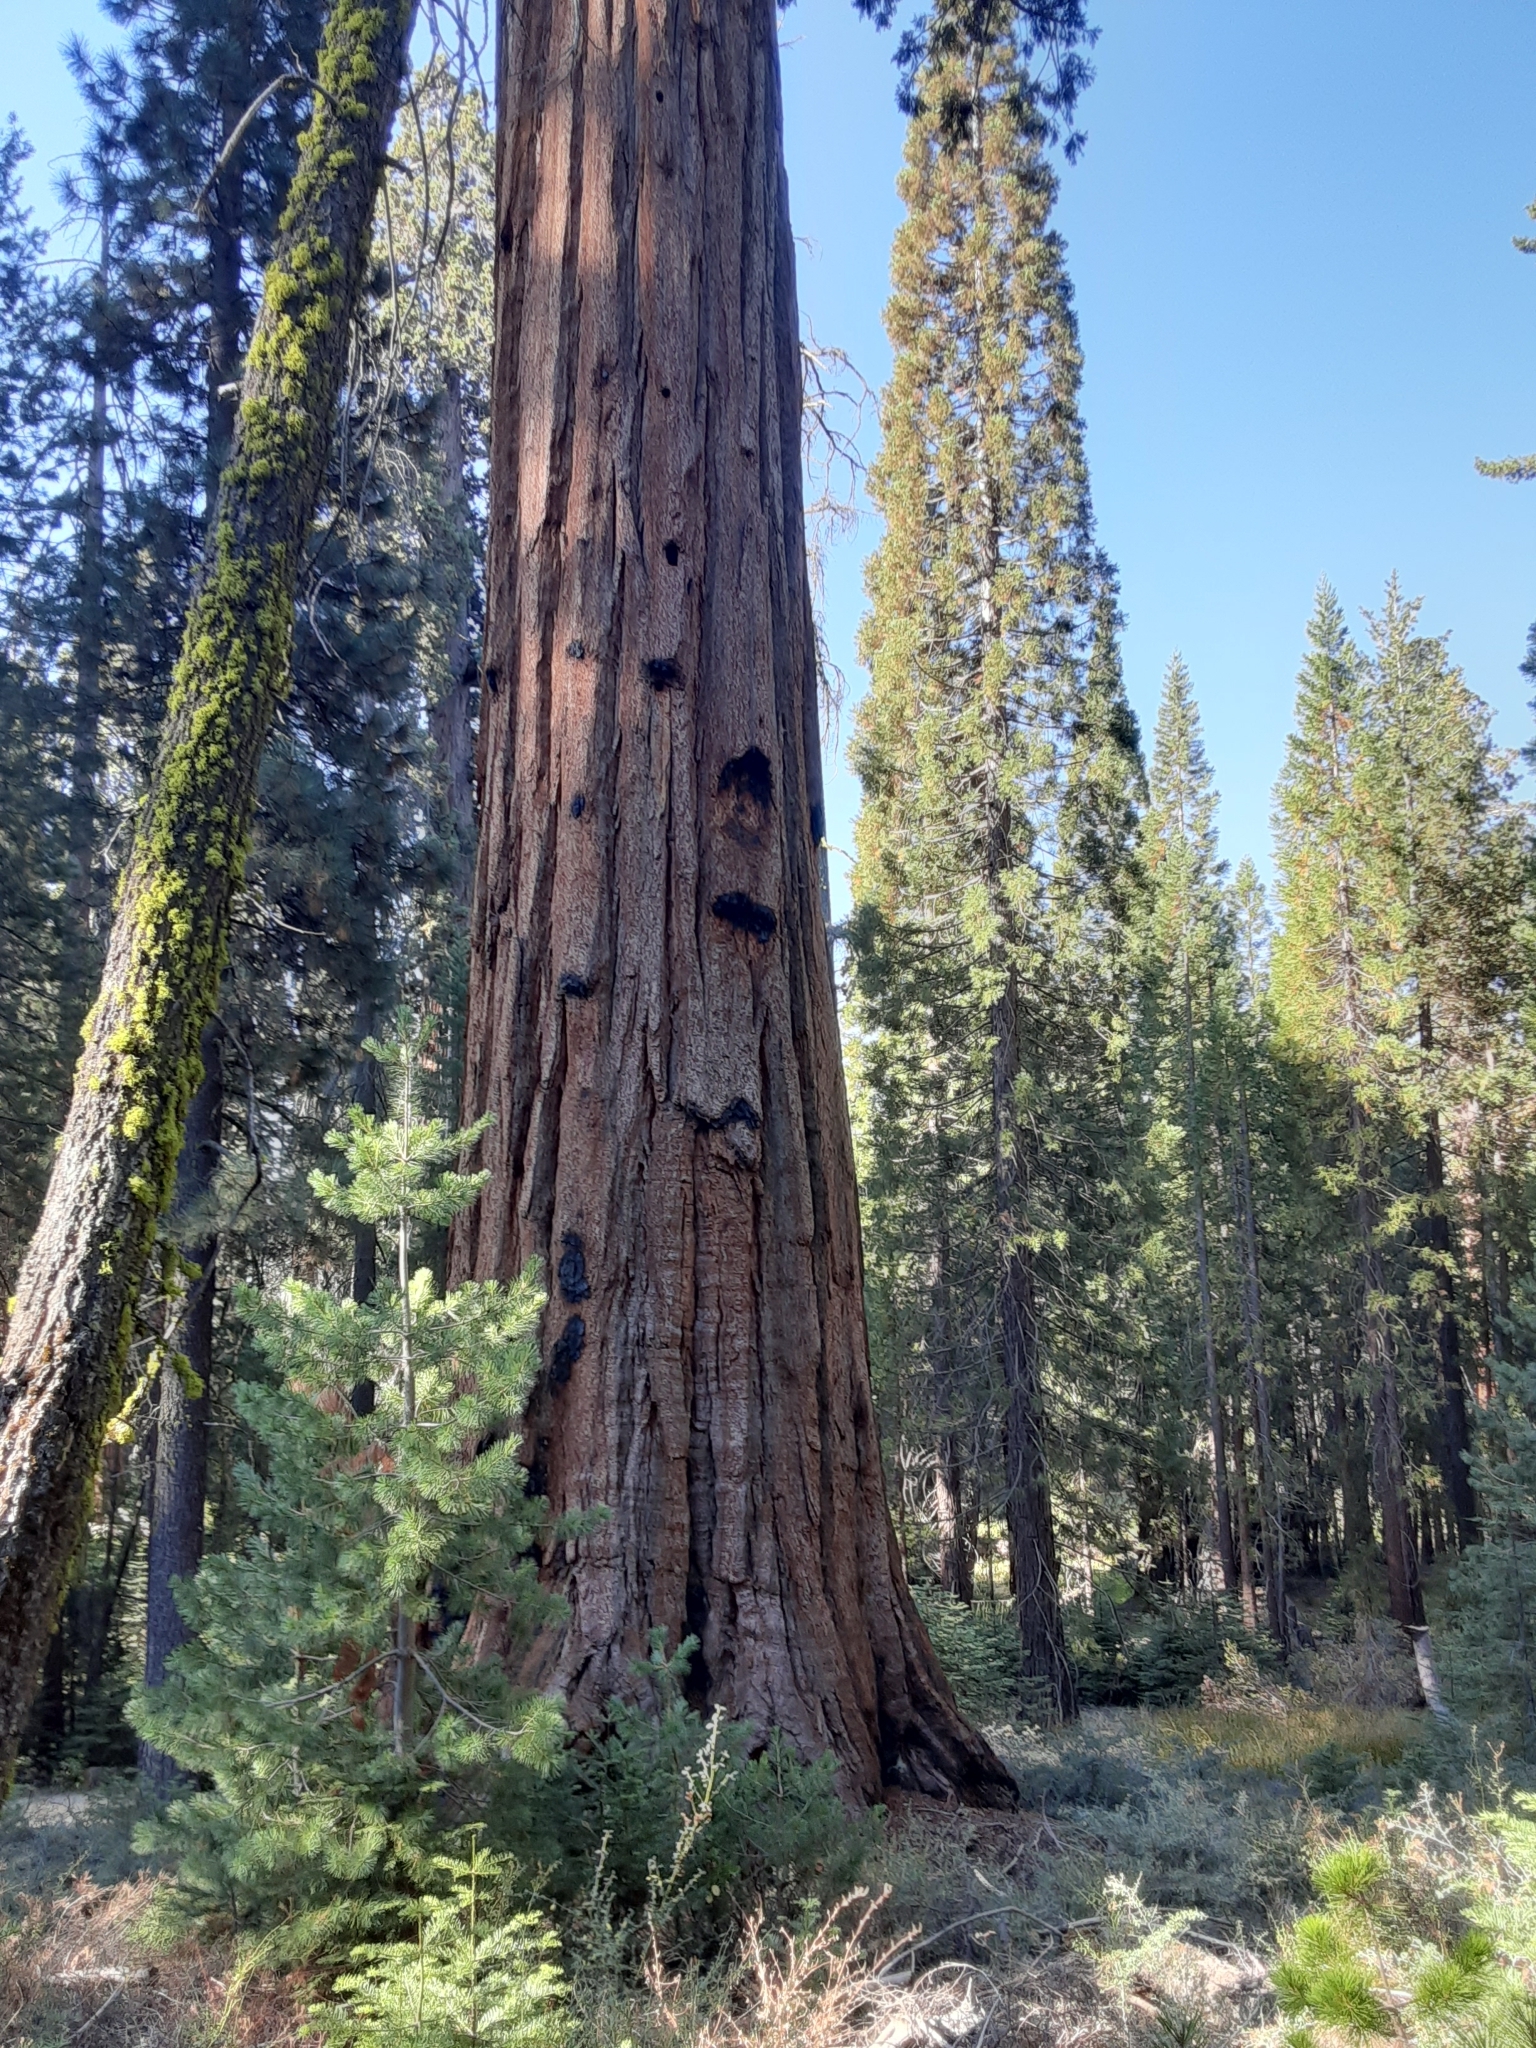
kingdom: Plantae
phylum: Tracheophyta
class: Pinopsida
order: Pinales
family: Cupressaceae
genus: Sequoiadendron
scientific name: Sequoiadendron giganteum
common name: Wellingtonia
